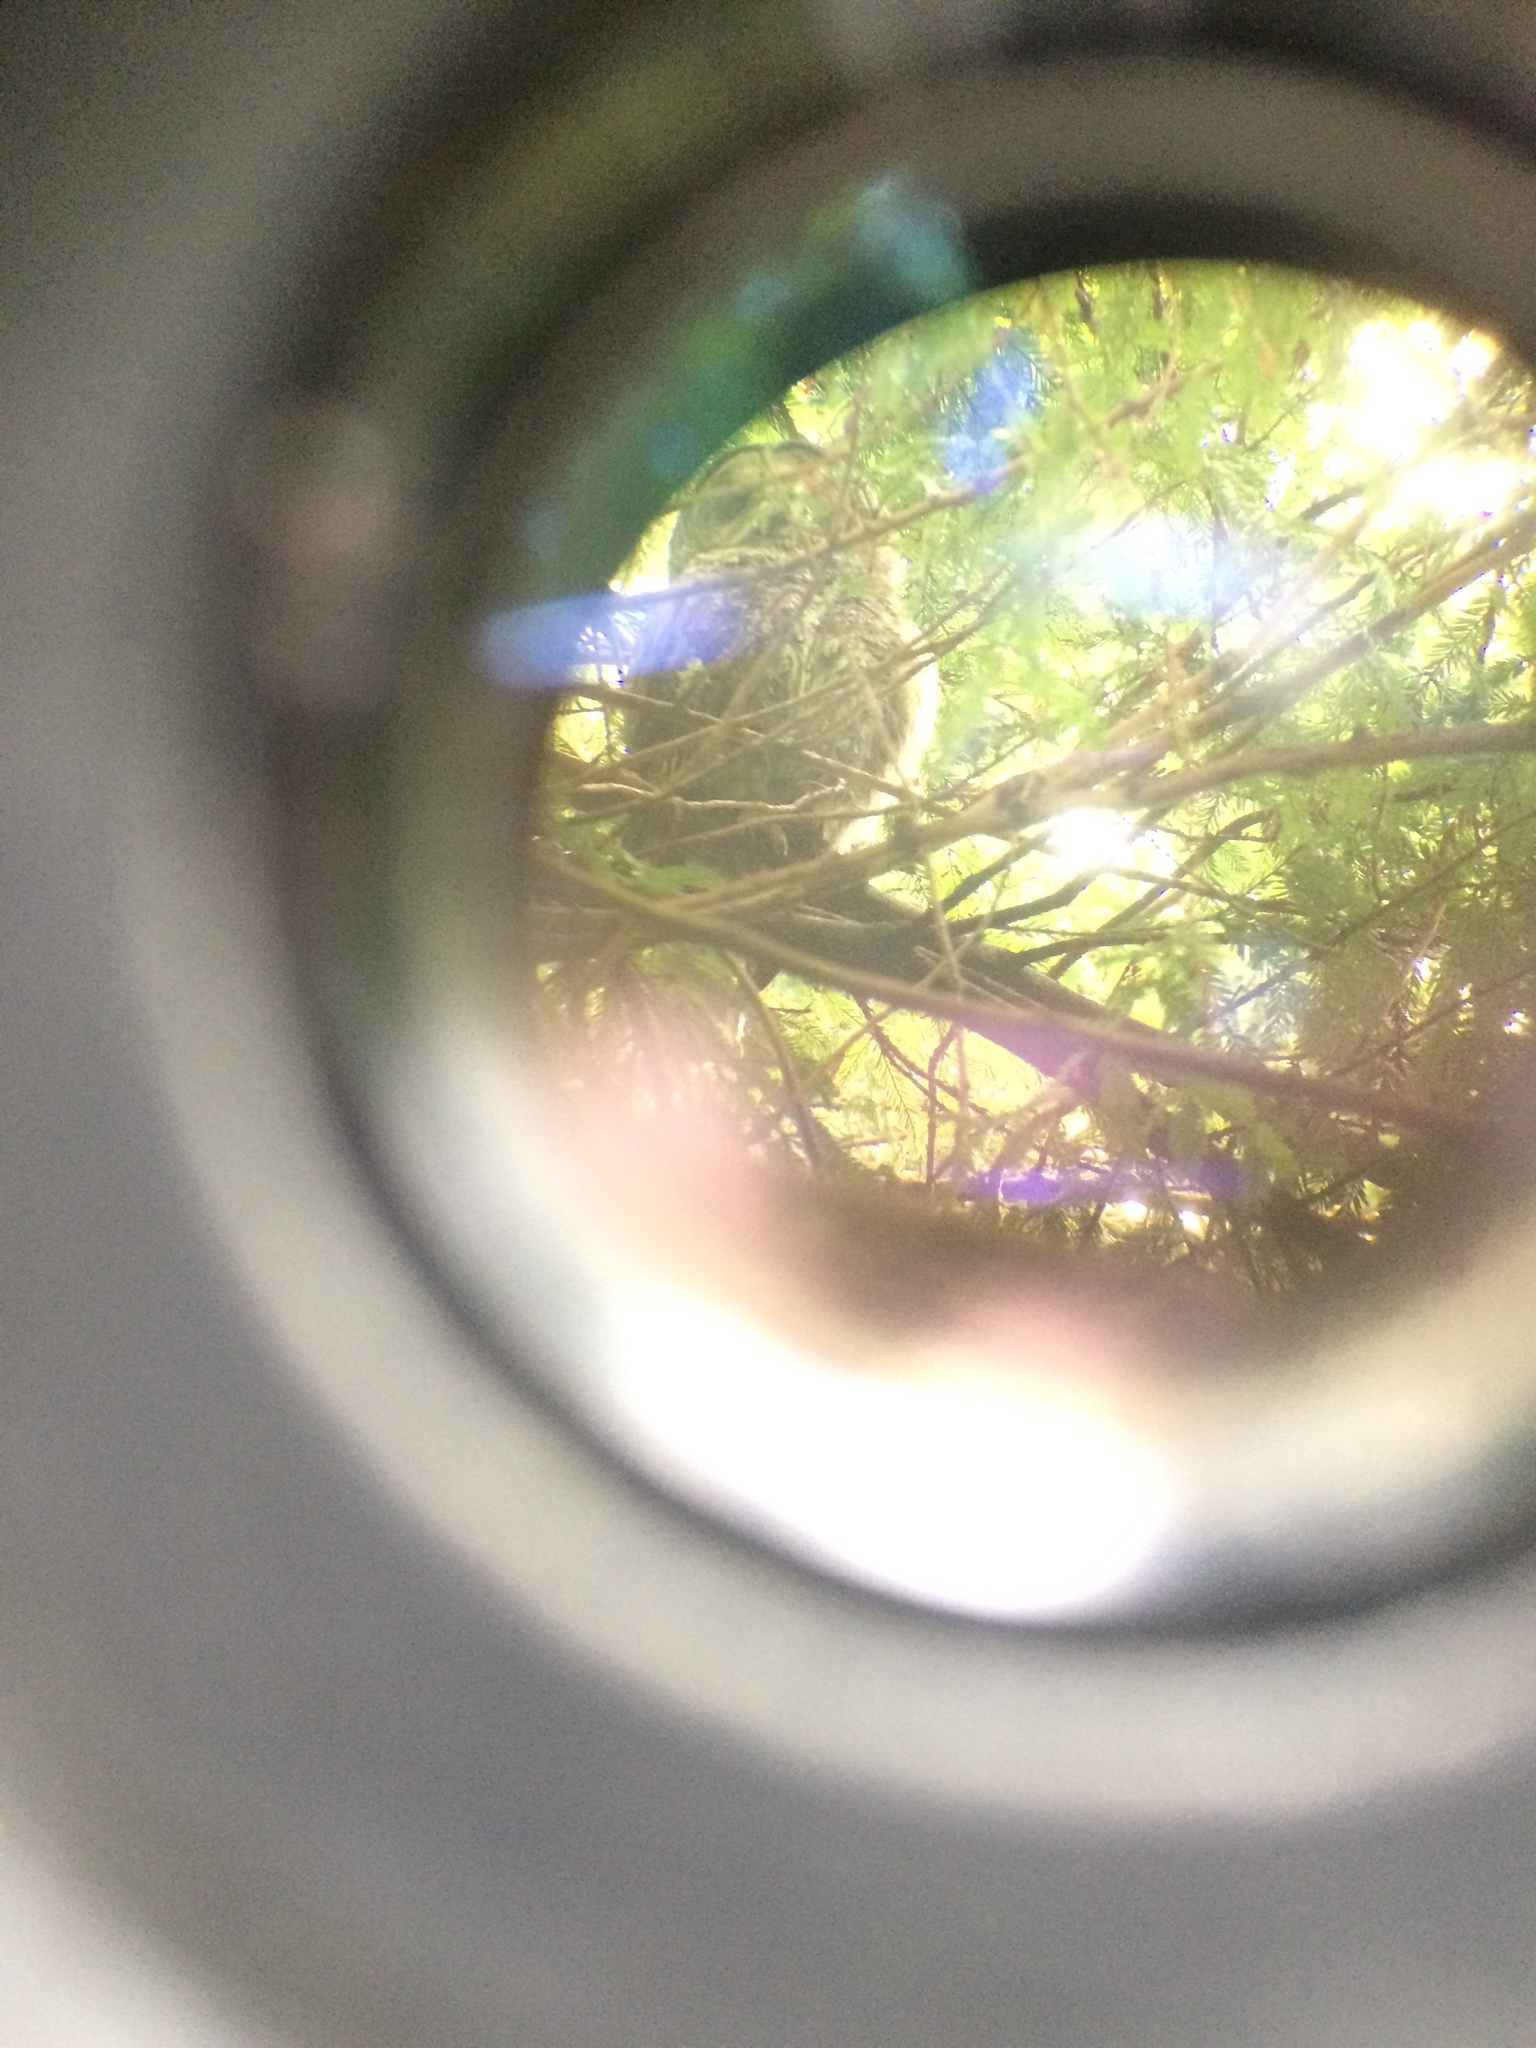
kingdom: Animalia
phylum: Chordata
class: Aves
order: Strigiformes
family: Strigidae
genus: Strix
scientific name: Strix varia
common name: Barred owl
